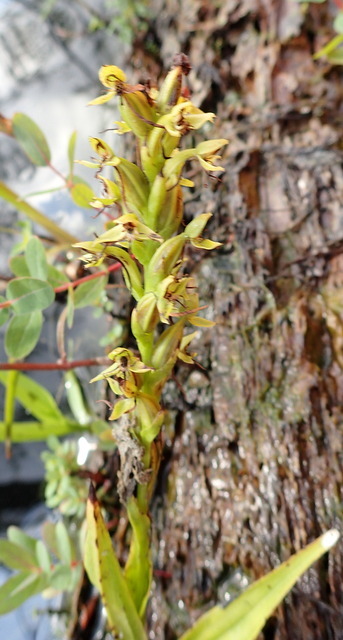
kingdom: Plantae
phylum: Tracheophyta
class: Liliopsida
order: Asparagales
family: Orchidaceae
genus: Habenaria
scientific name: Habenaria repens
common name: Water orchid
